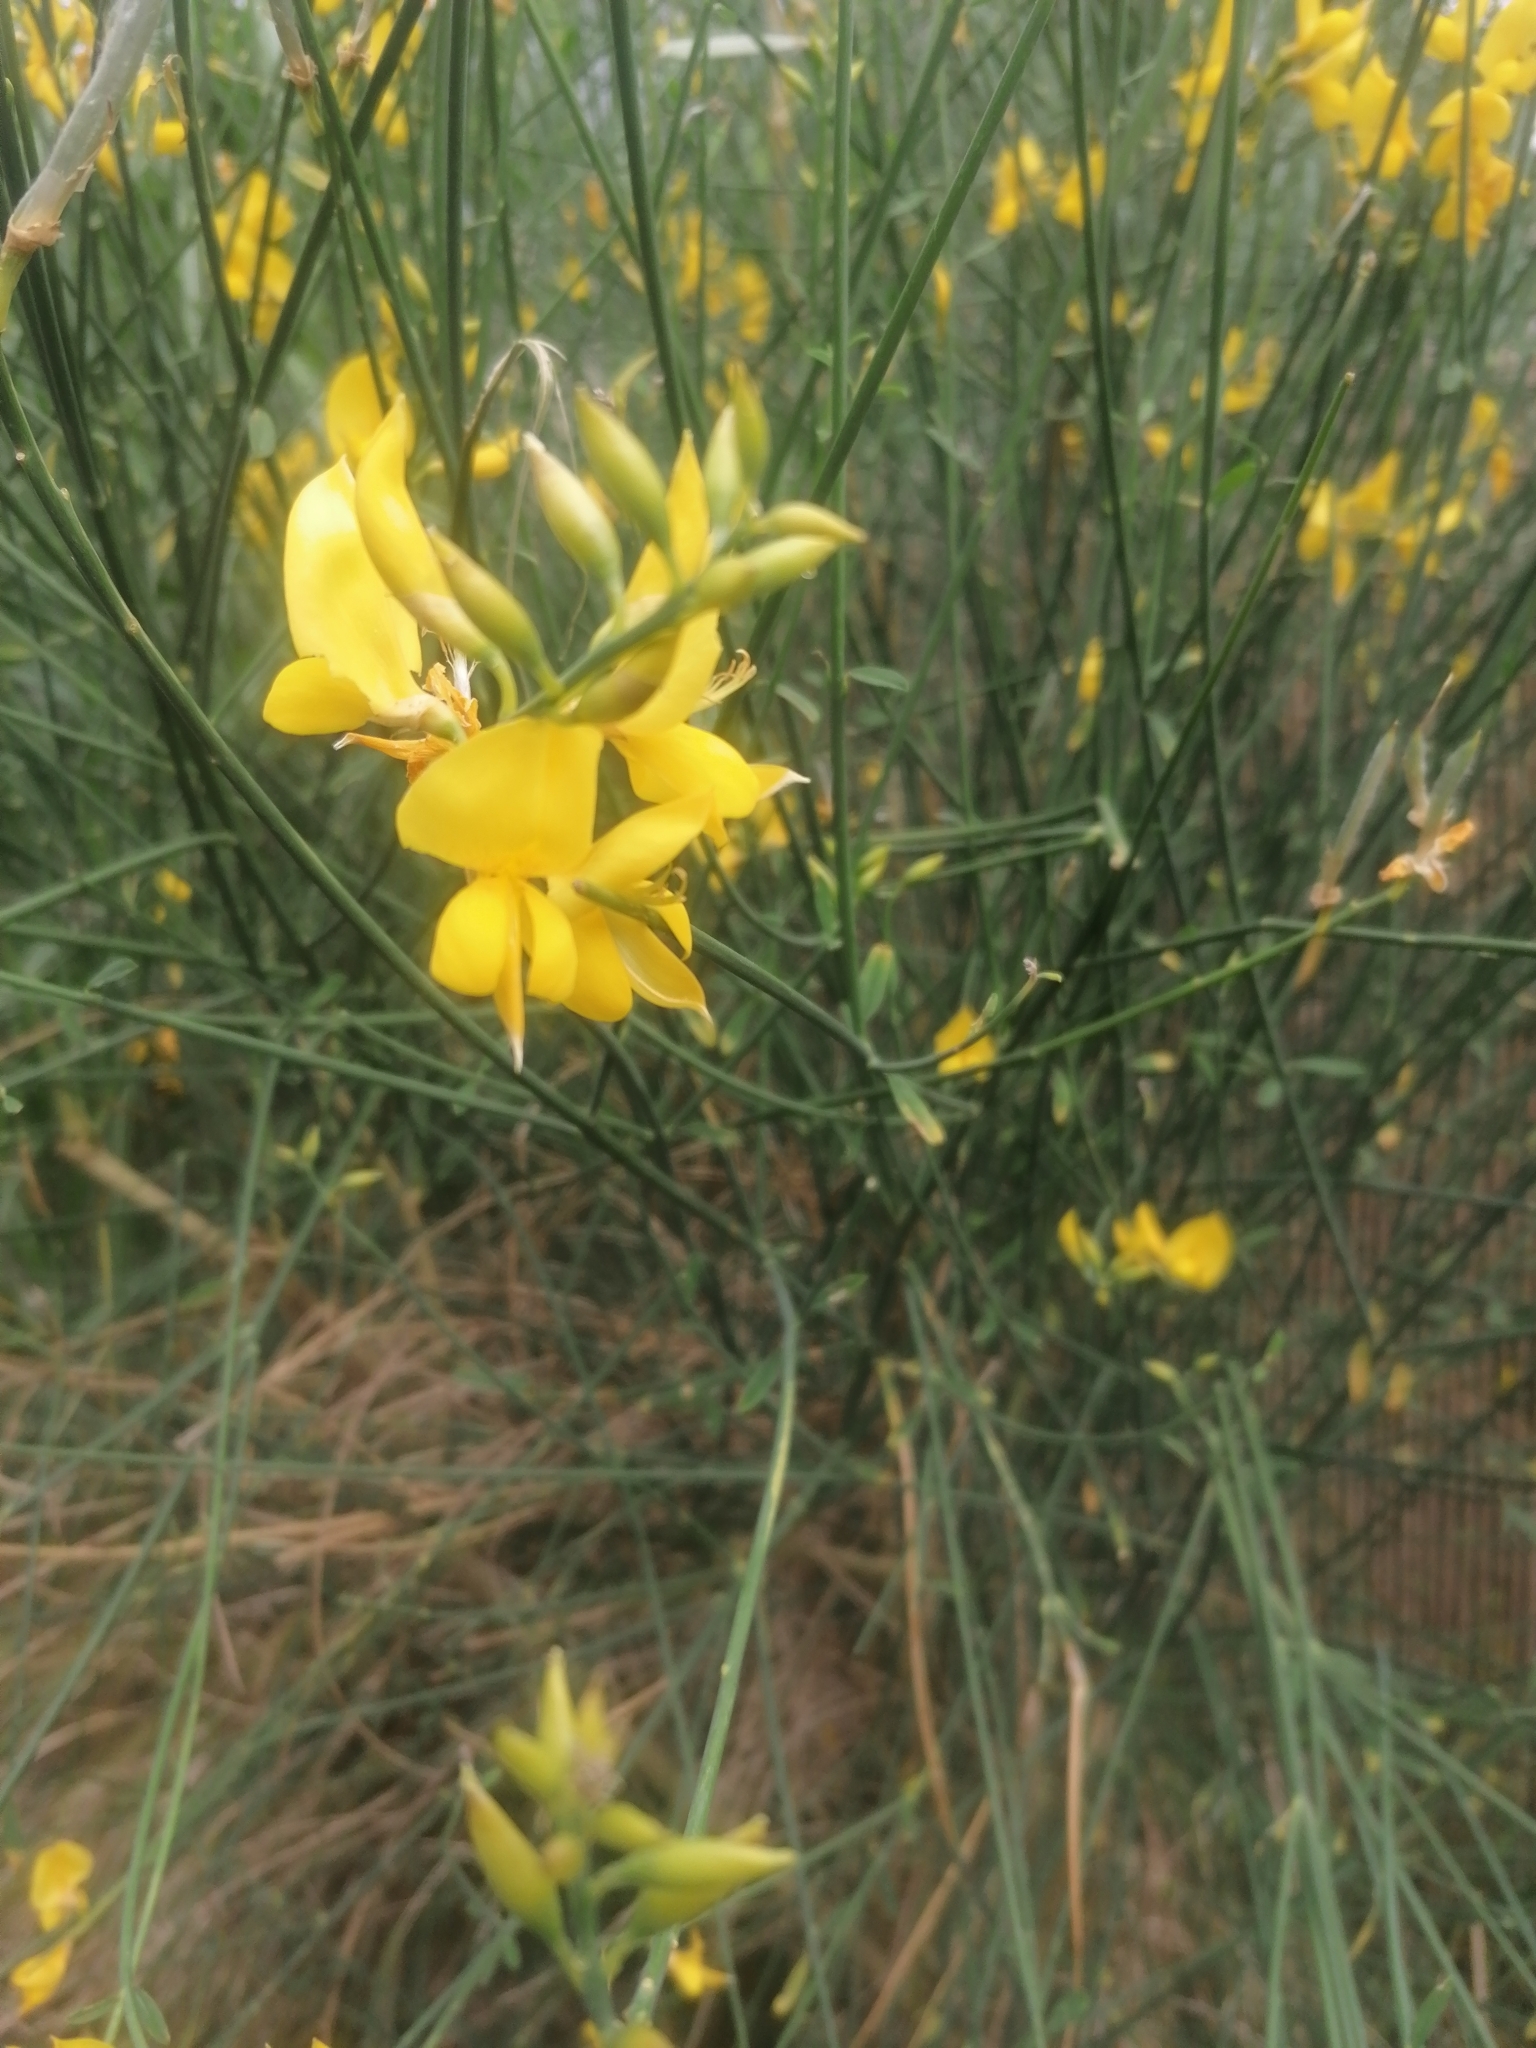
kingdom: Plantae
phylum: Tracheophyta
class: Magnoliopsida
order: Fabales
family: Fabaceae
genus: Spartium
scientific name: Spartium junceum
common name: Spanish broom
